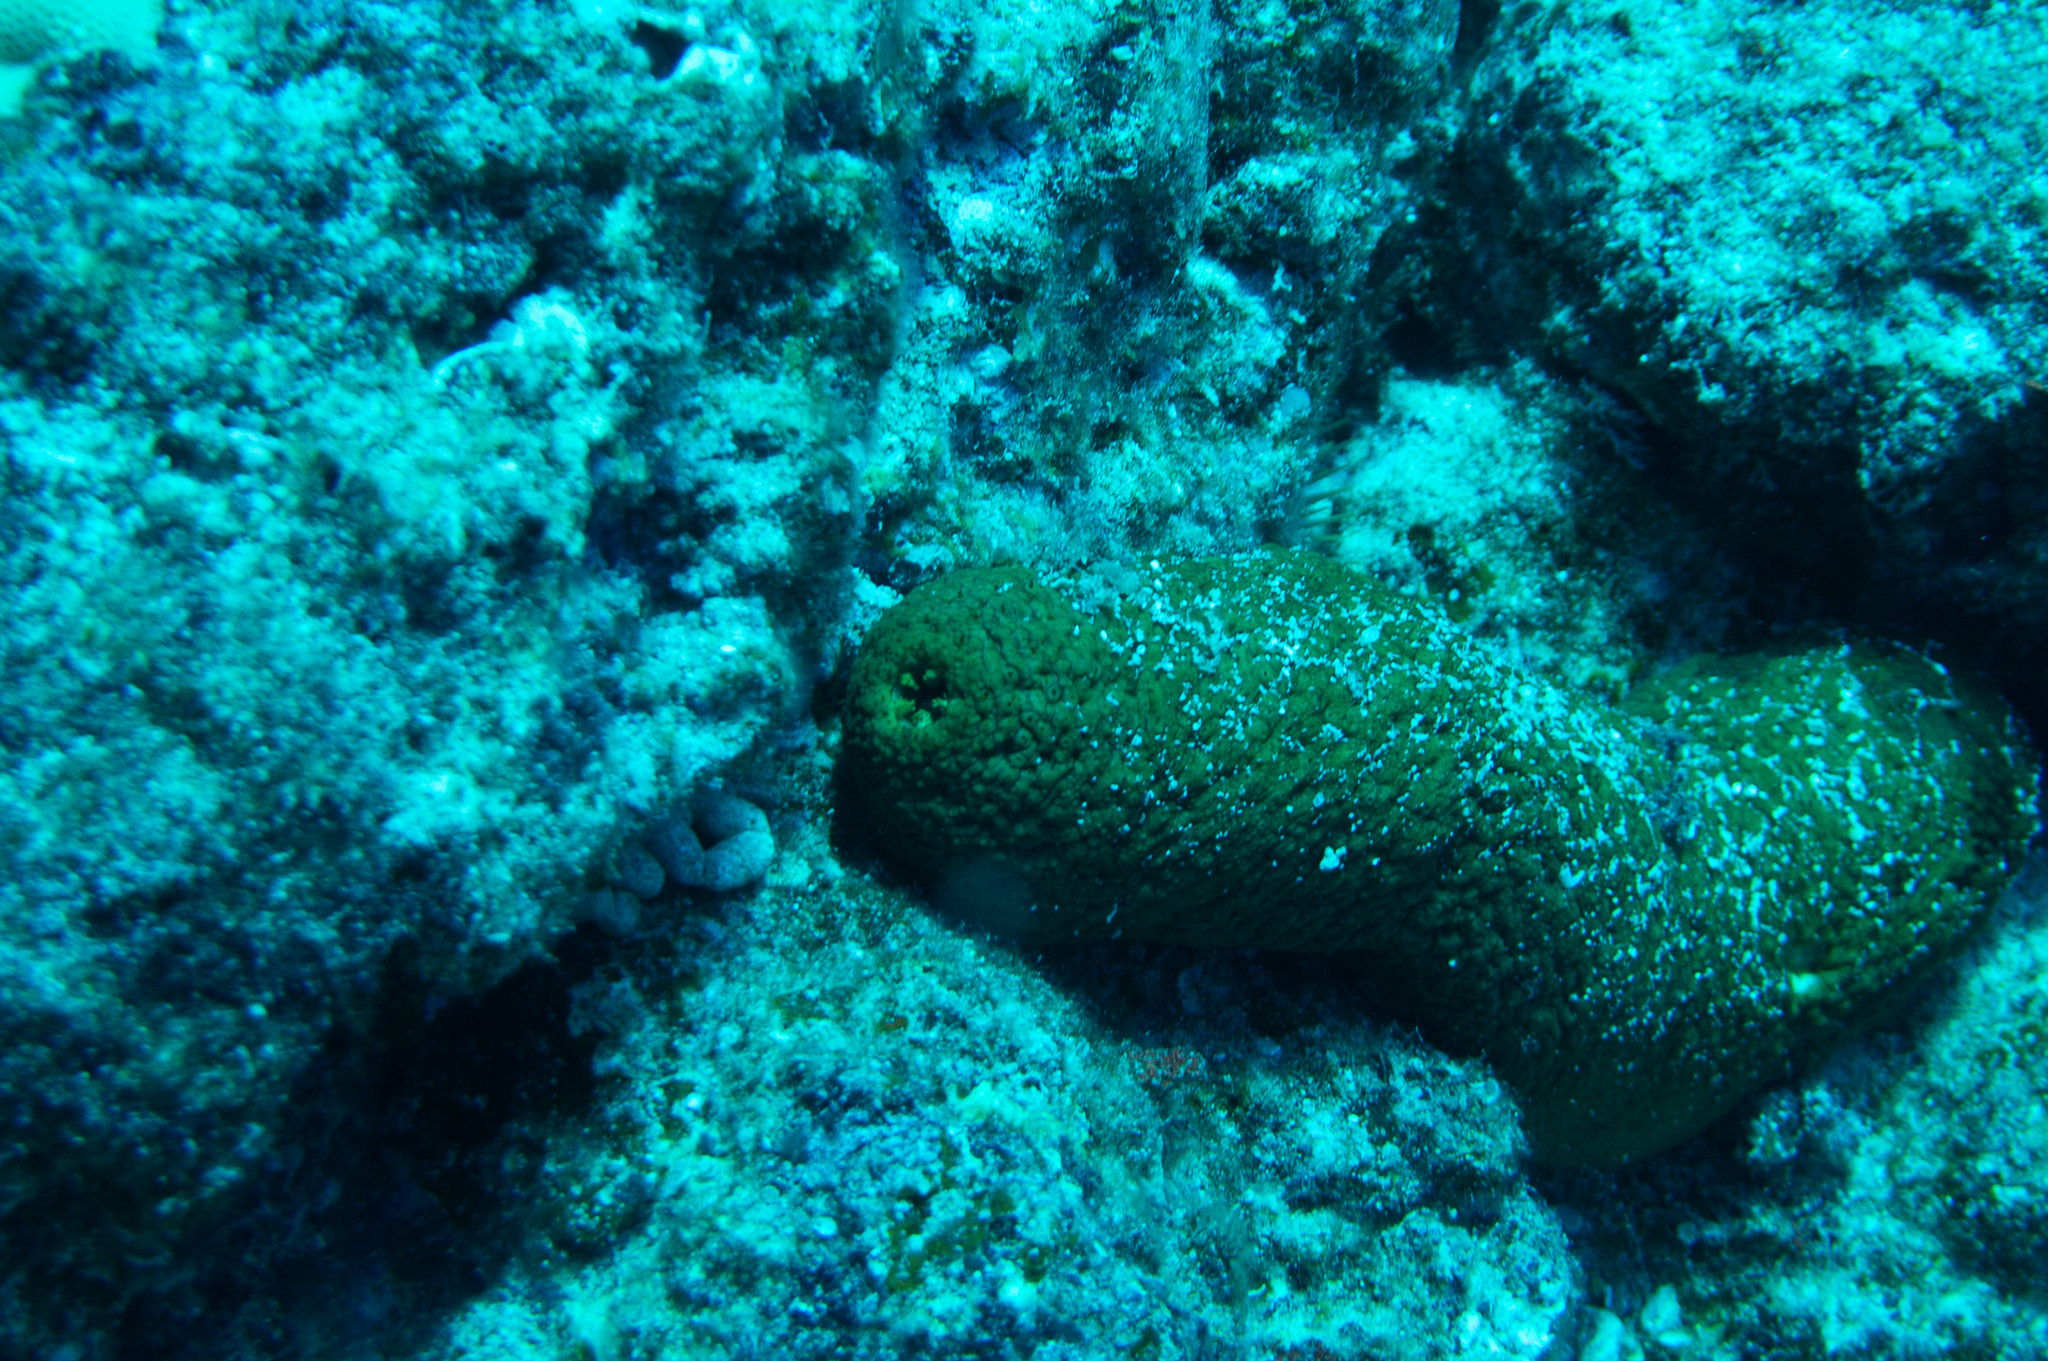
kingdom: Animalia
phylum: Echinodermata
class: Holothuroidea
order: Holothuriida
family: Holothuriidae
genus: Actinopyga
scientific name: Actinopyga obesa
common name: Plump sea cucumber
